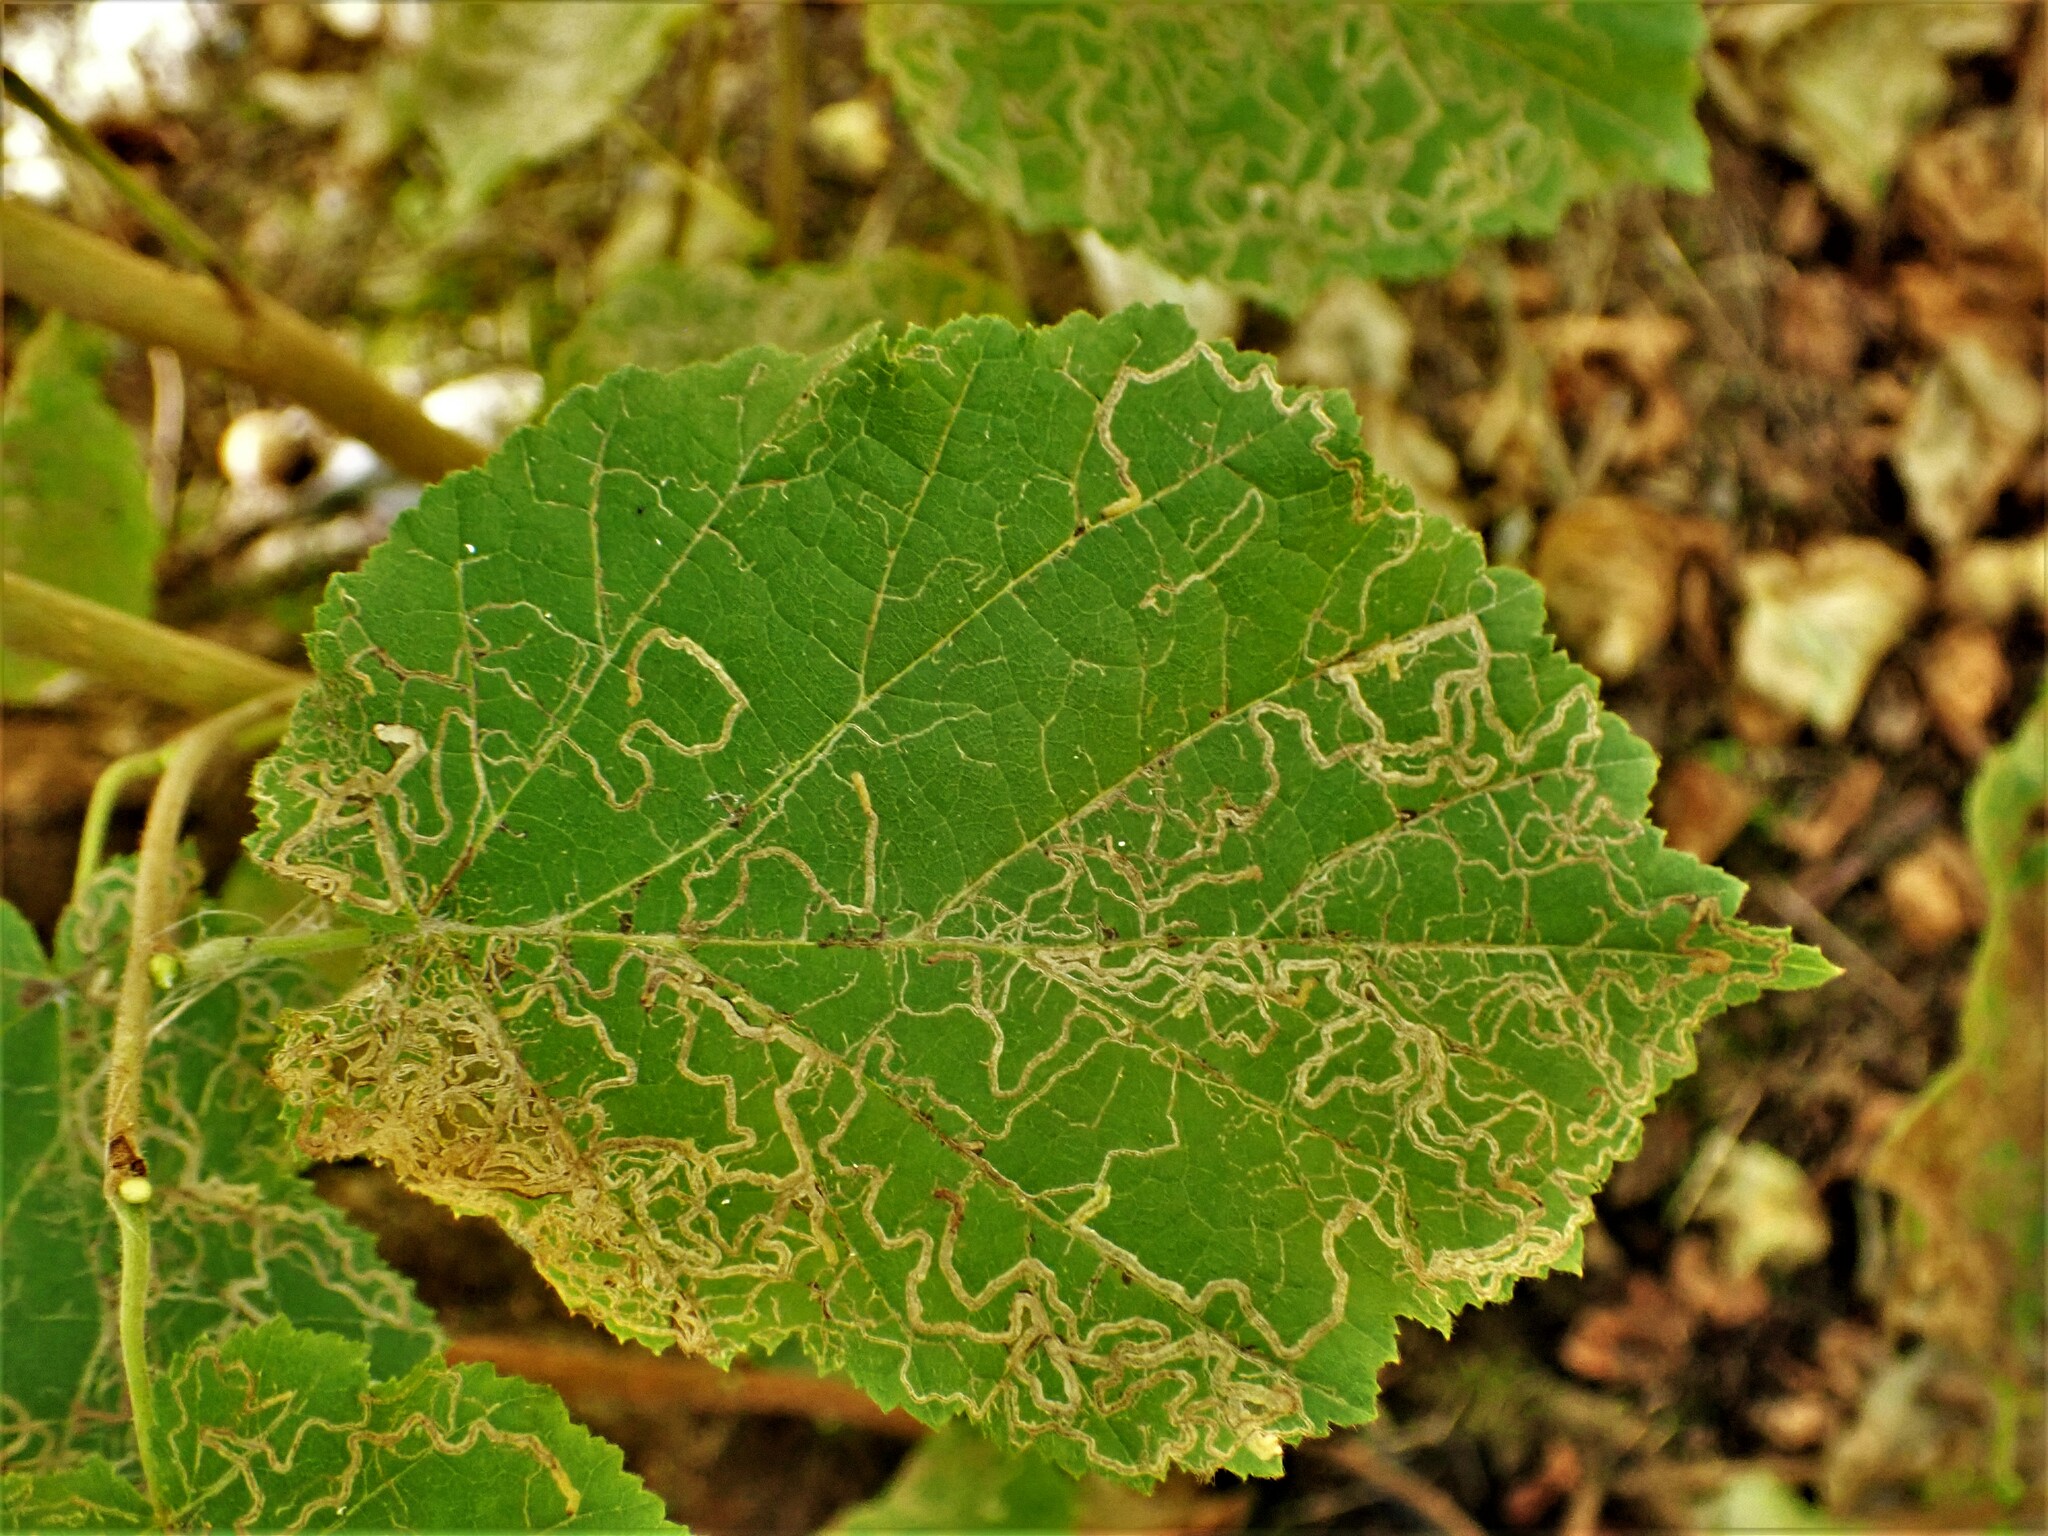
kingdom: Animalia
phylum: Arthropoda
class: Insecta
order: Lepidoptera
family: Nepticulidae
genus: Stigmella
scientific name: Stigmella microtheriella
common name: Nut-tree pigmy
